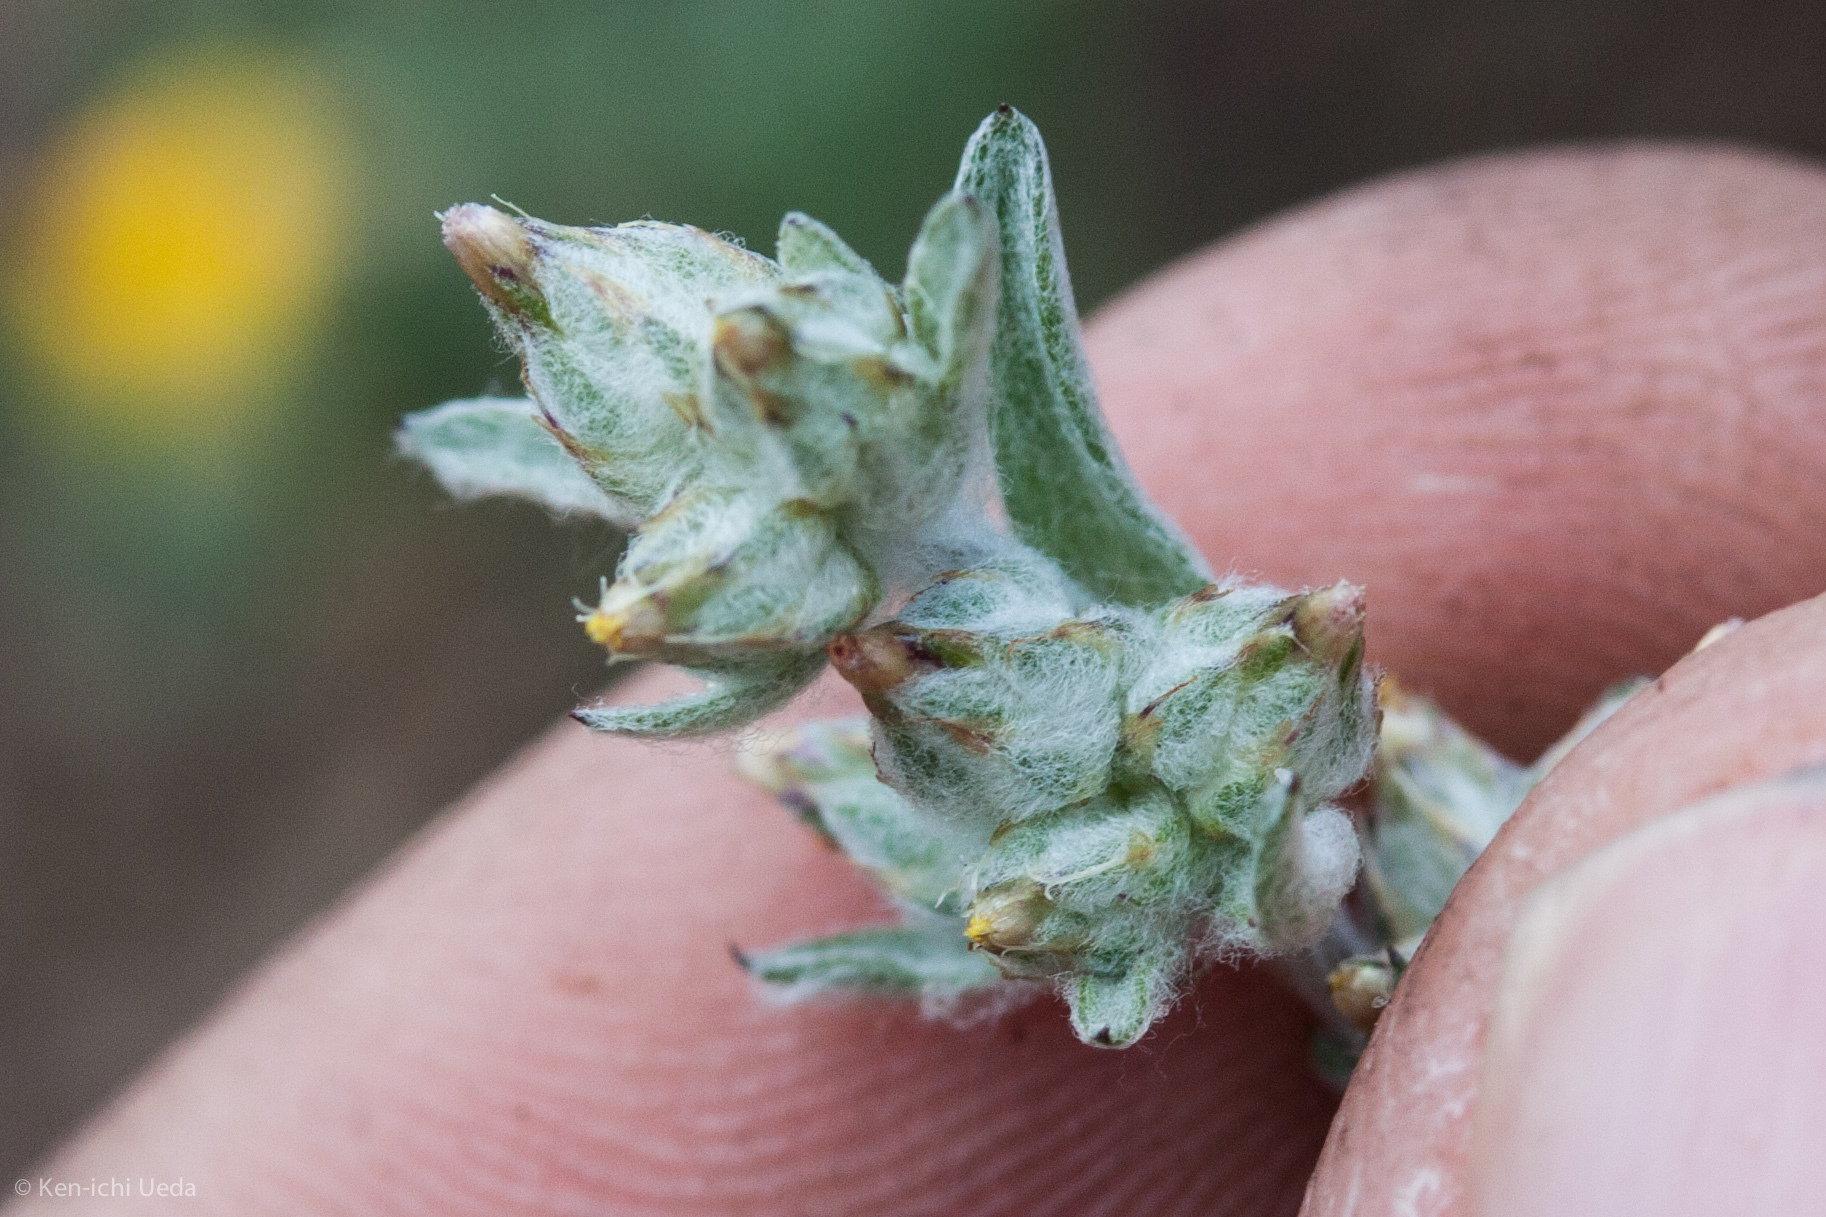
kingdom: Plantae
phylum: Tracheophyta
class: Magnoliopsida
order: Asterales
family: Asteraceae
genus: Logfia
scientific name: Logfia californica
